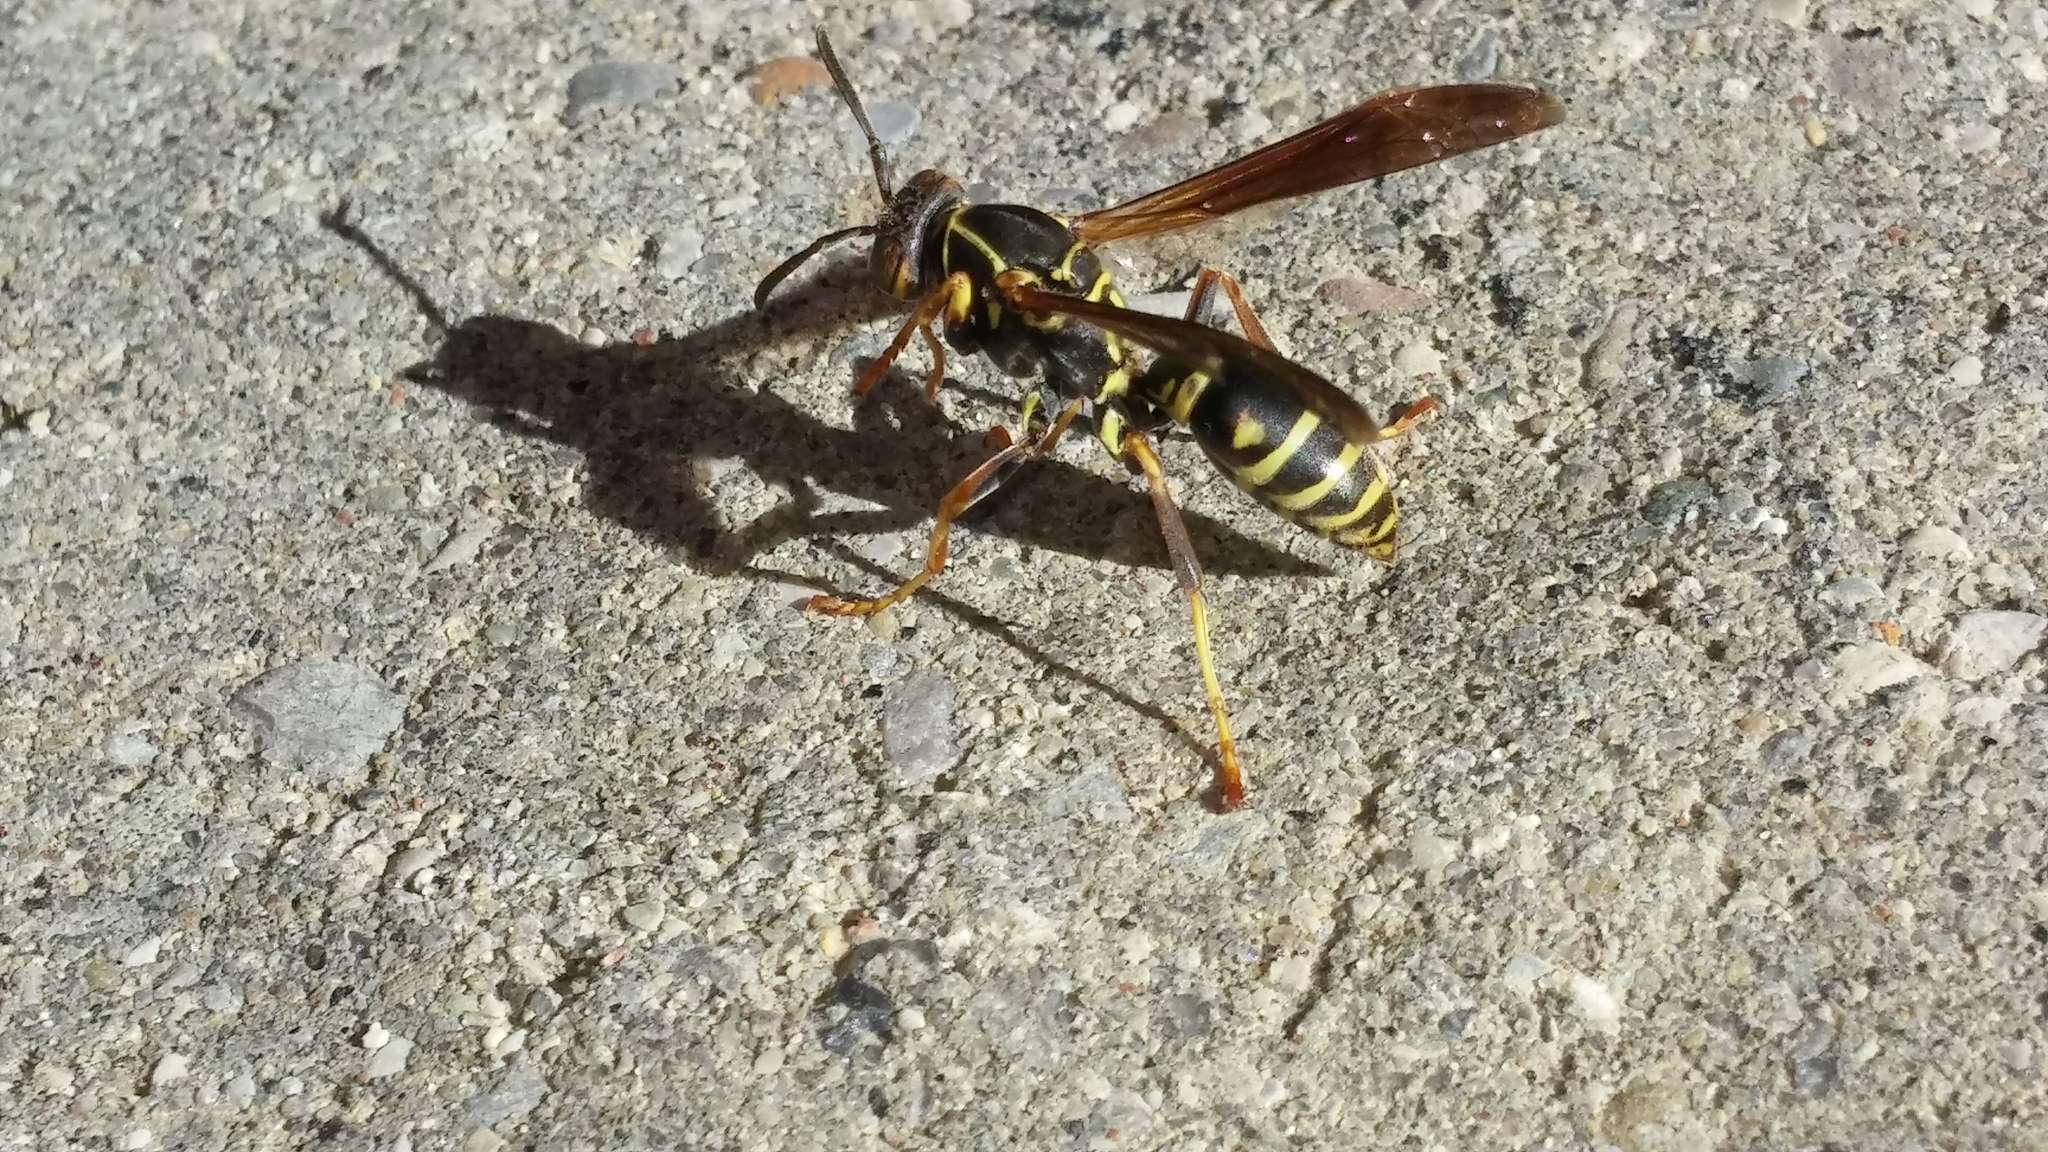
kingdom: Animalia
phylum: Arthropoda
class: Insecta
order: Hymenoptera
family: Eumenidae
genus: Polistes
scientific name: Polistes fuscatus
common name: Dark paper wasp
